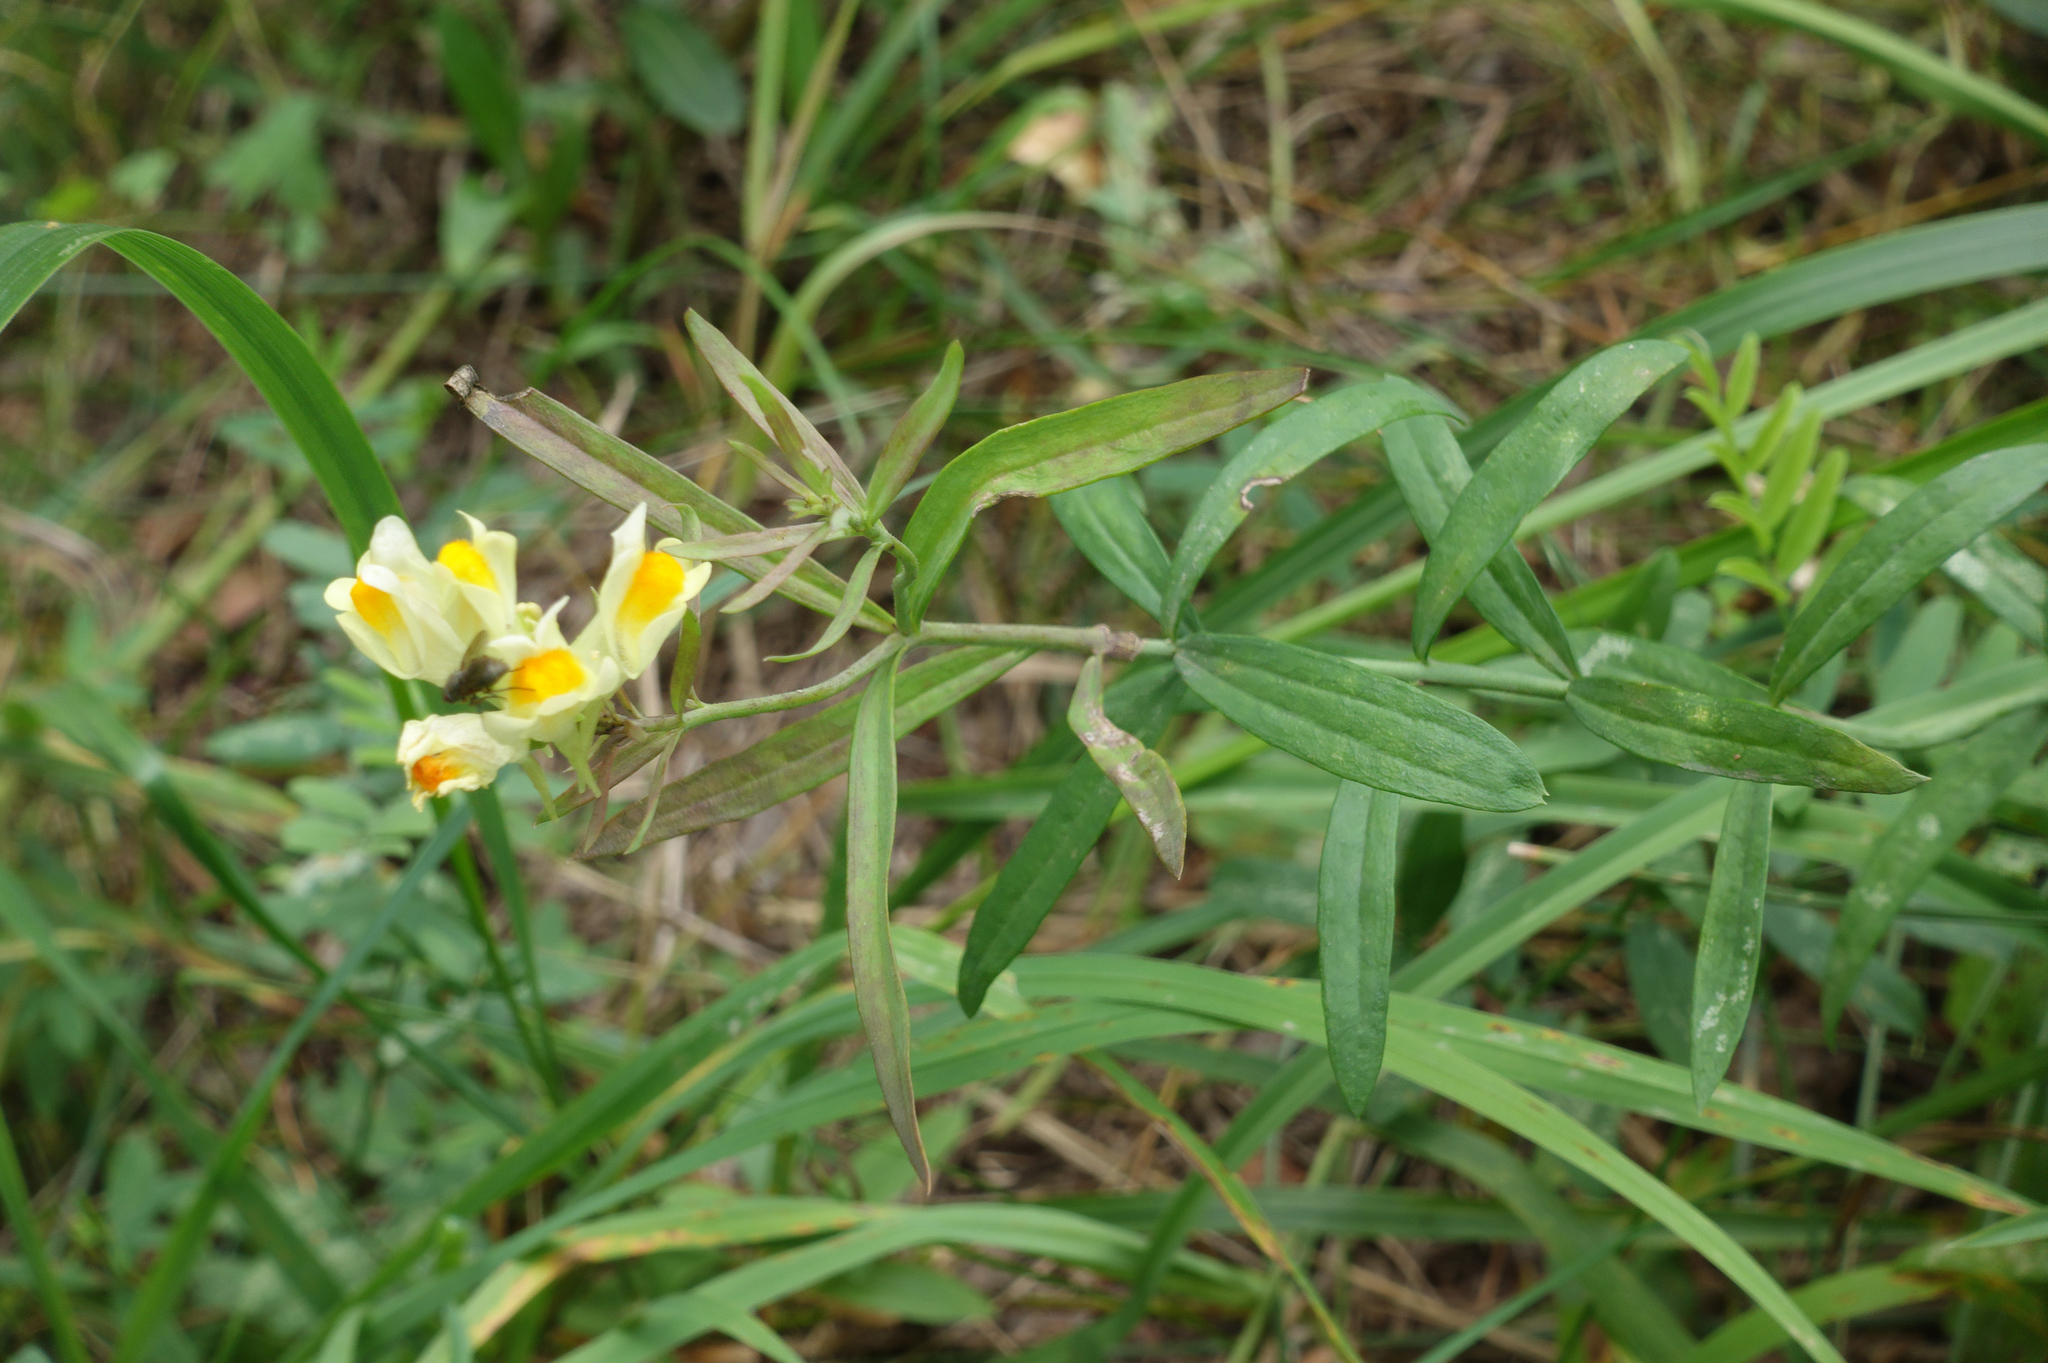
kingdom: Plantae
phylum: Tracheophyta
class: Magnoliopsida
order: Lamiales
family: Plantaginaceae
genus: Linaria
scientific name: Linaria vulgaris
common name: Butter and eggs
